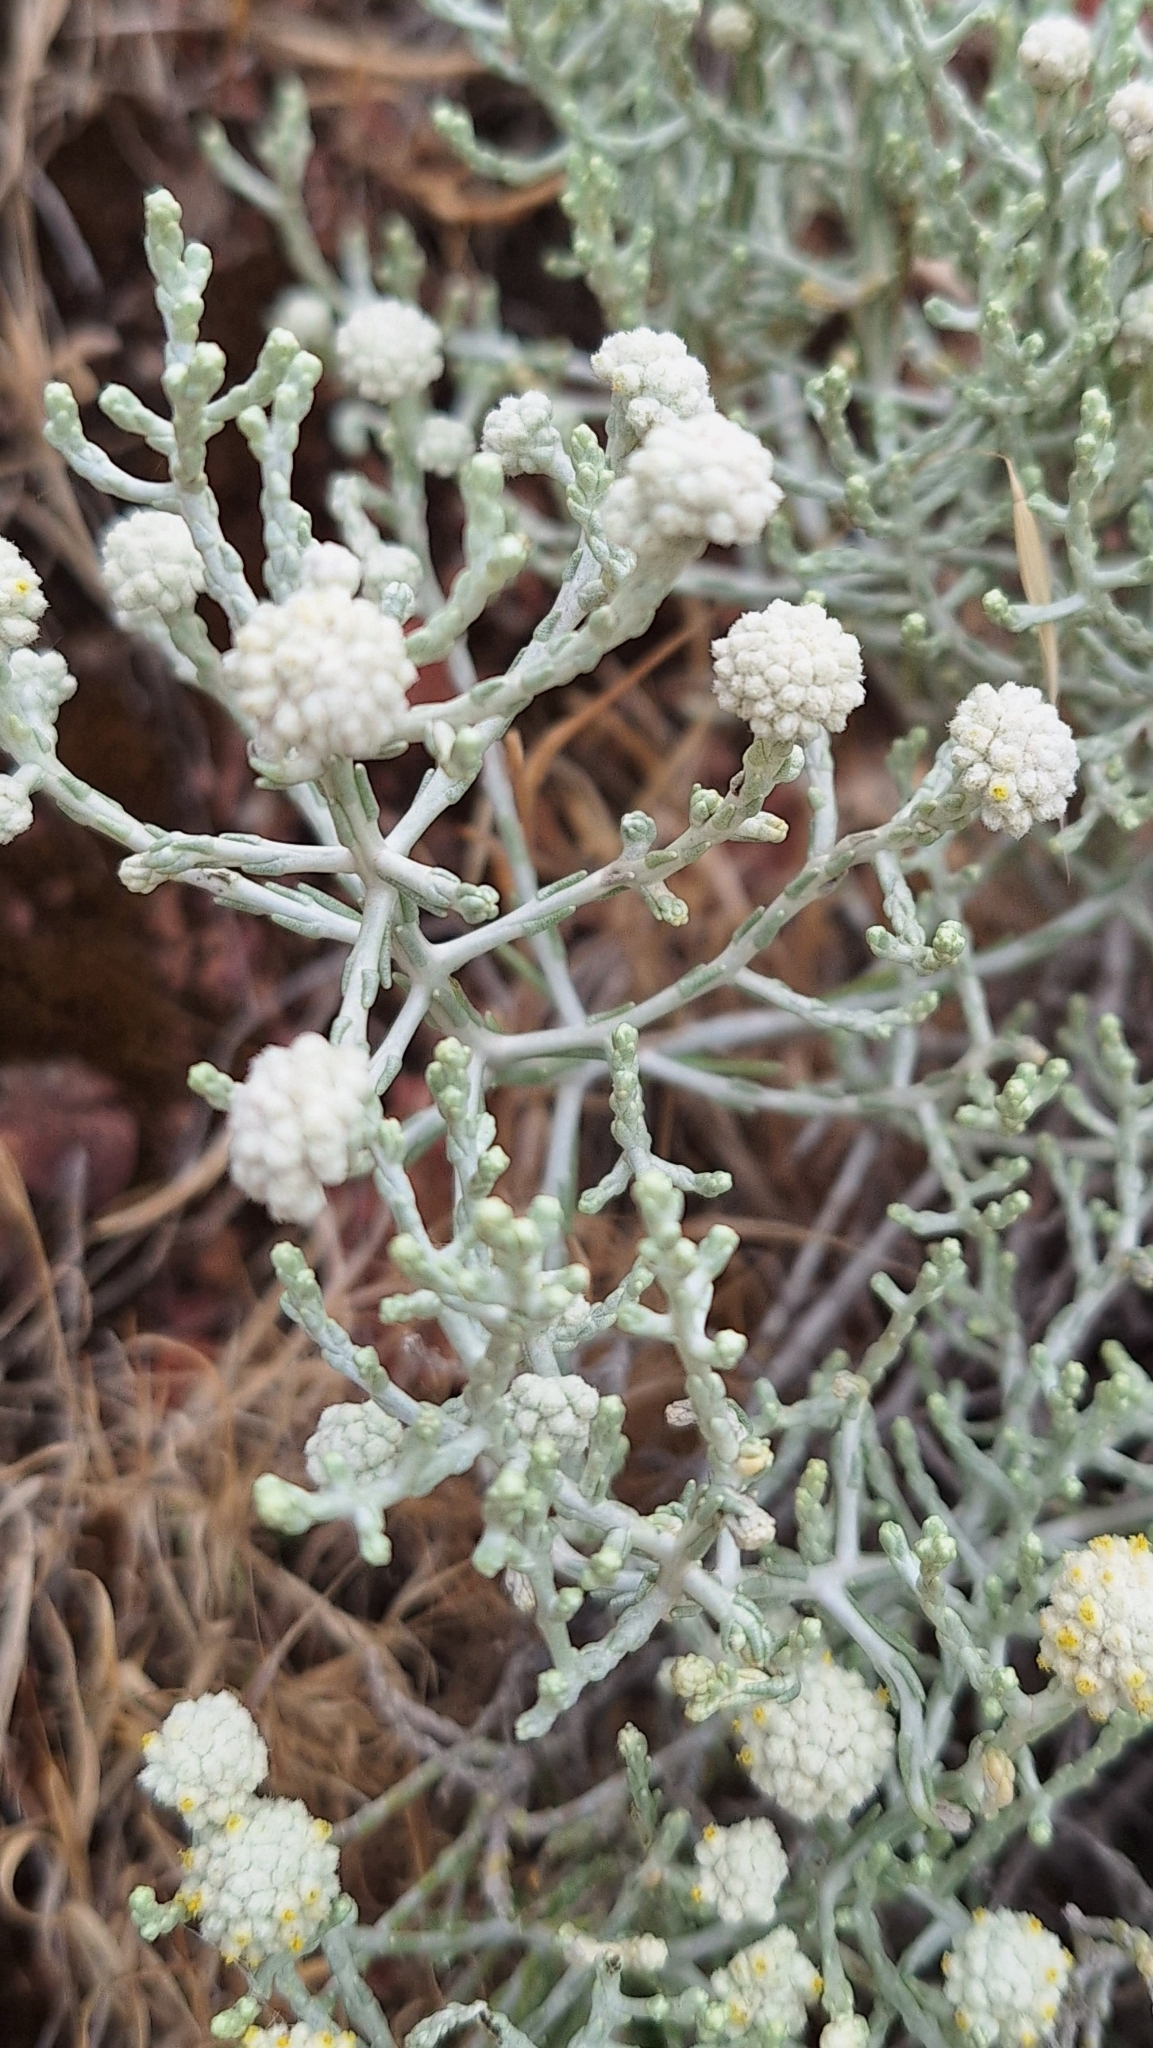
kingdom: Plantae
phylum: Tracheophyta
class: Magnoliopsida
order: Asterales
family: Asteraceae
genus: Calocephalus
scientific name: Calocephalus brownii
